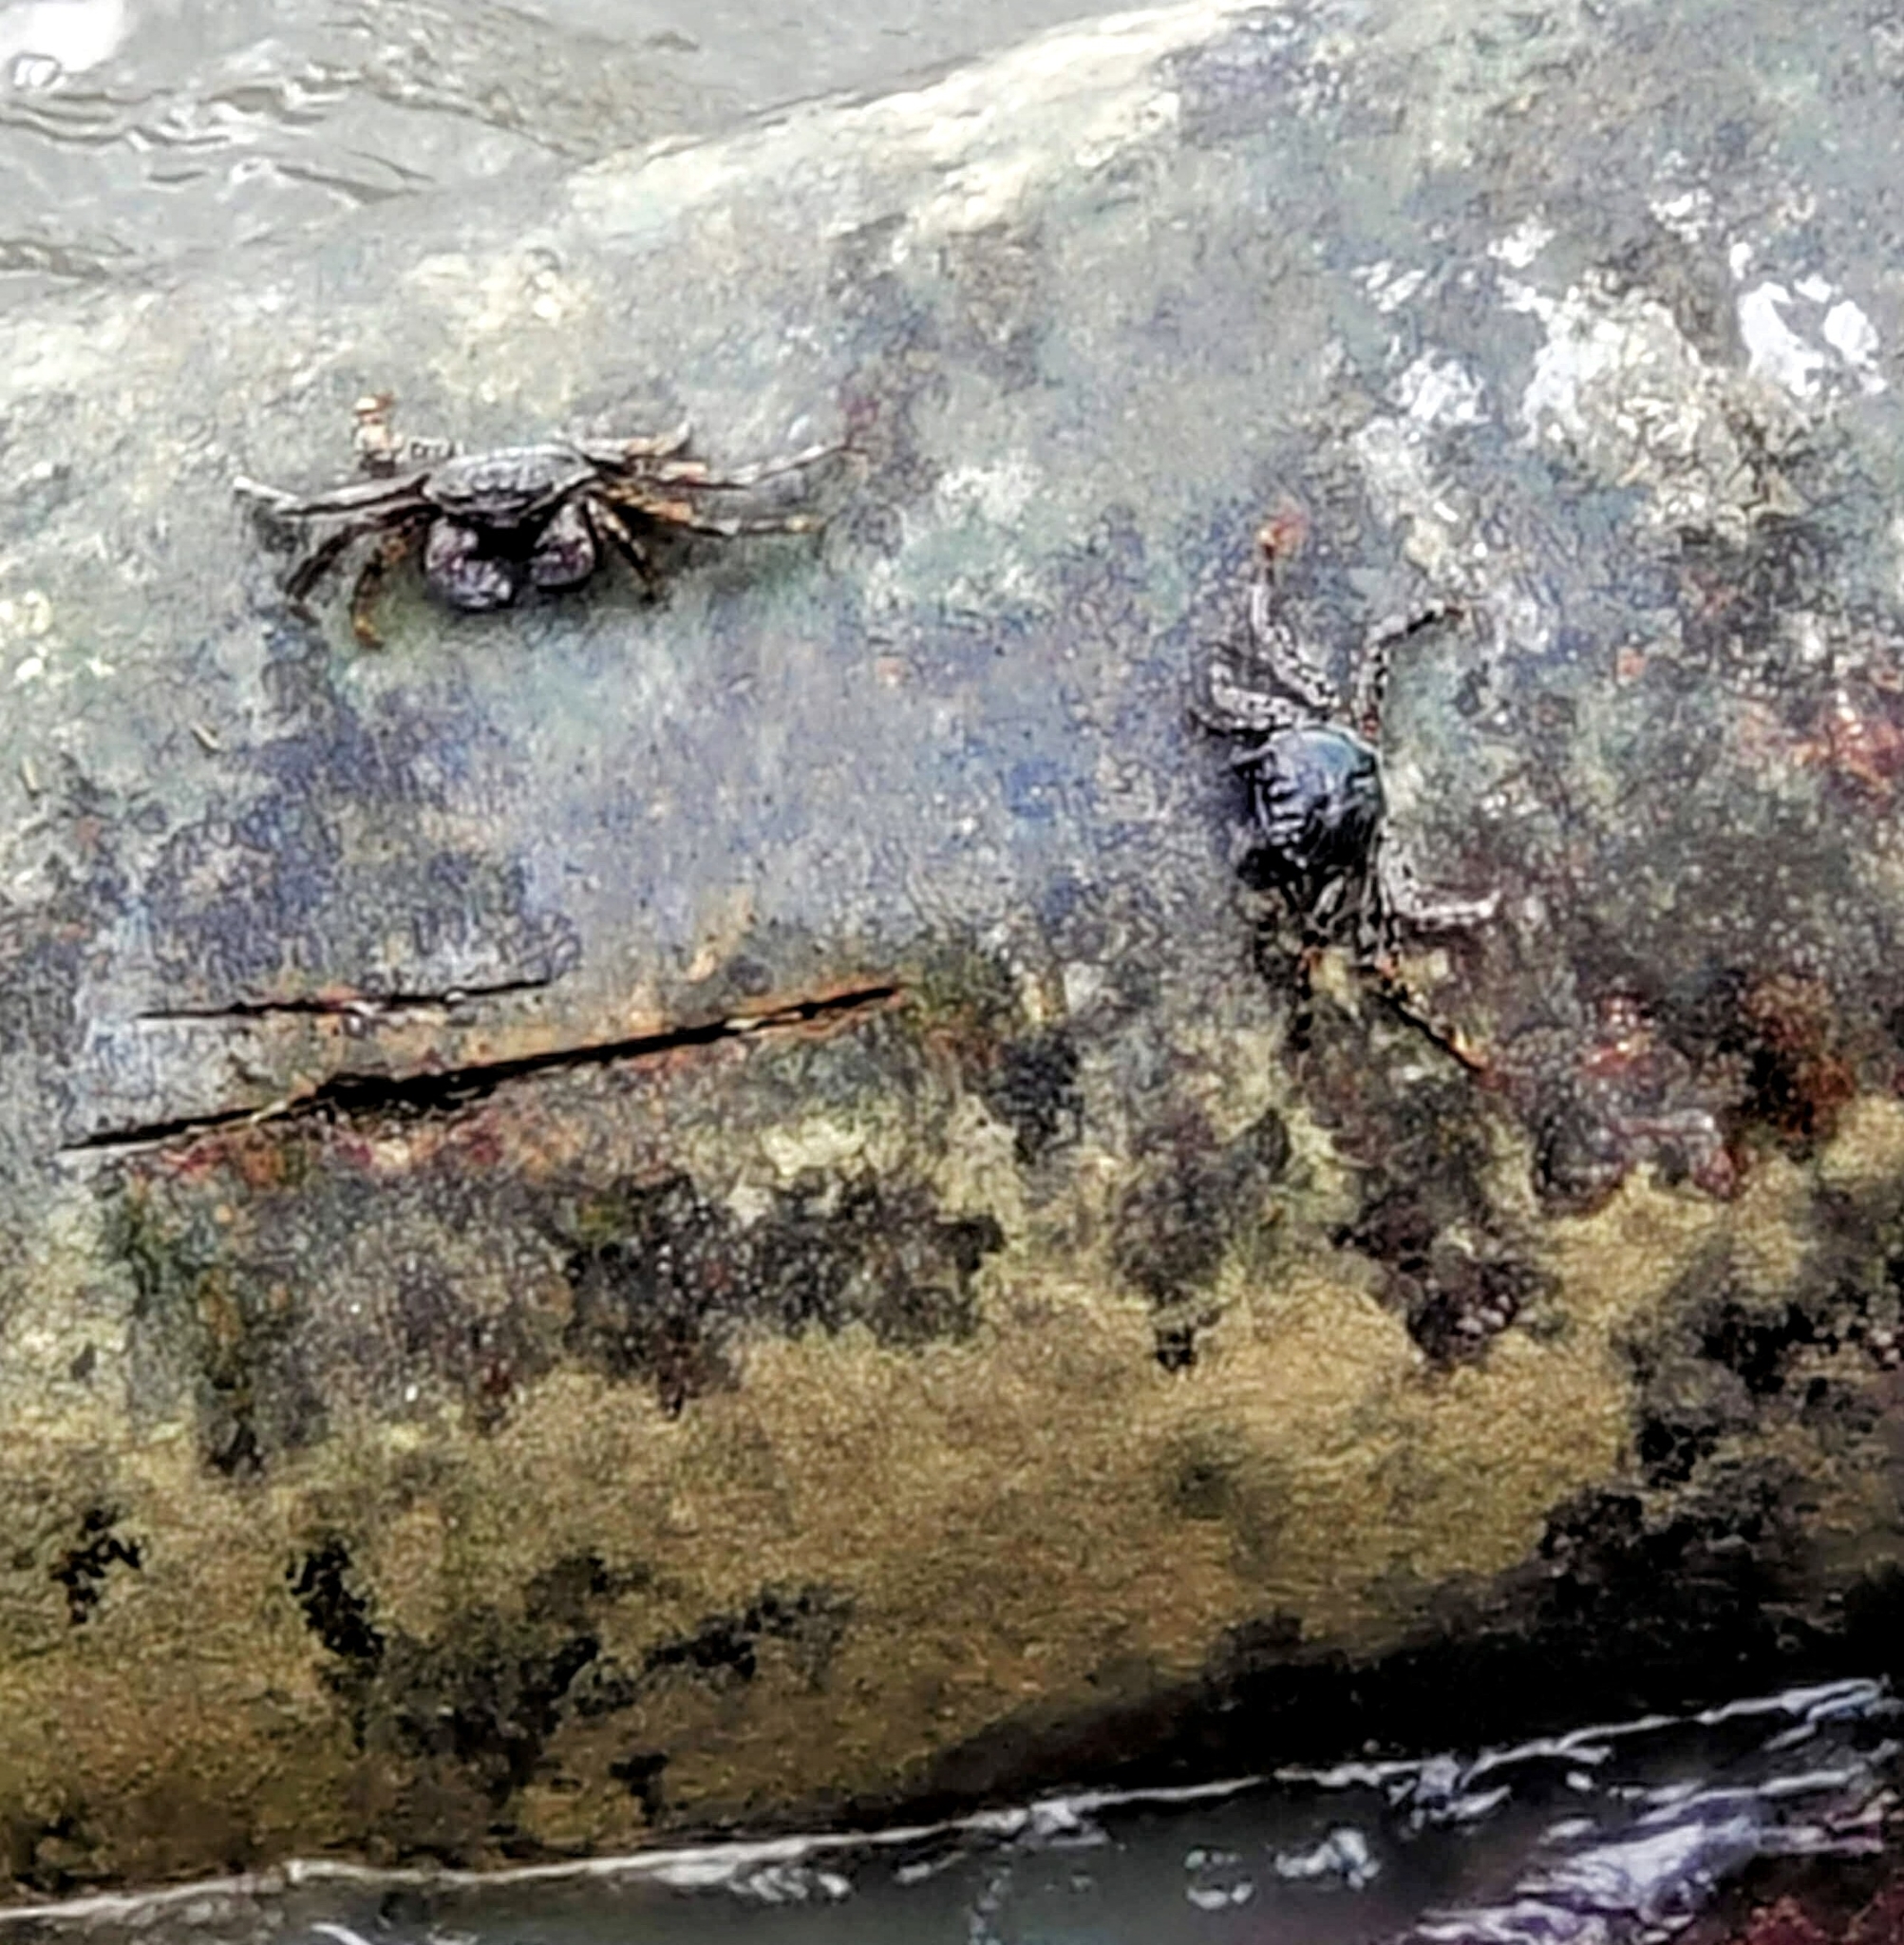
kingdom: Animalia
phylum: Arthropoda
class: Malacostraca
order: Decapoda
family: Grapsidae
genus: Grapsus
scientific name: Grapsus albolineatus
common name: Mottled lightfoot crab
